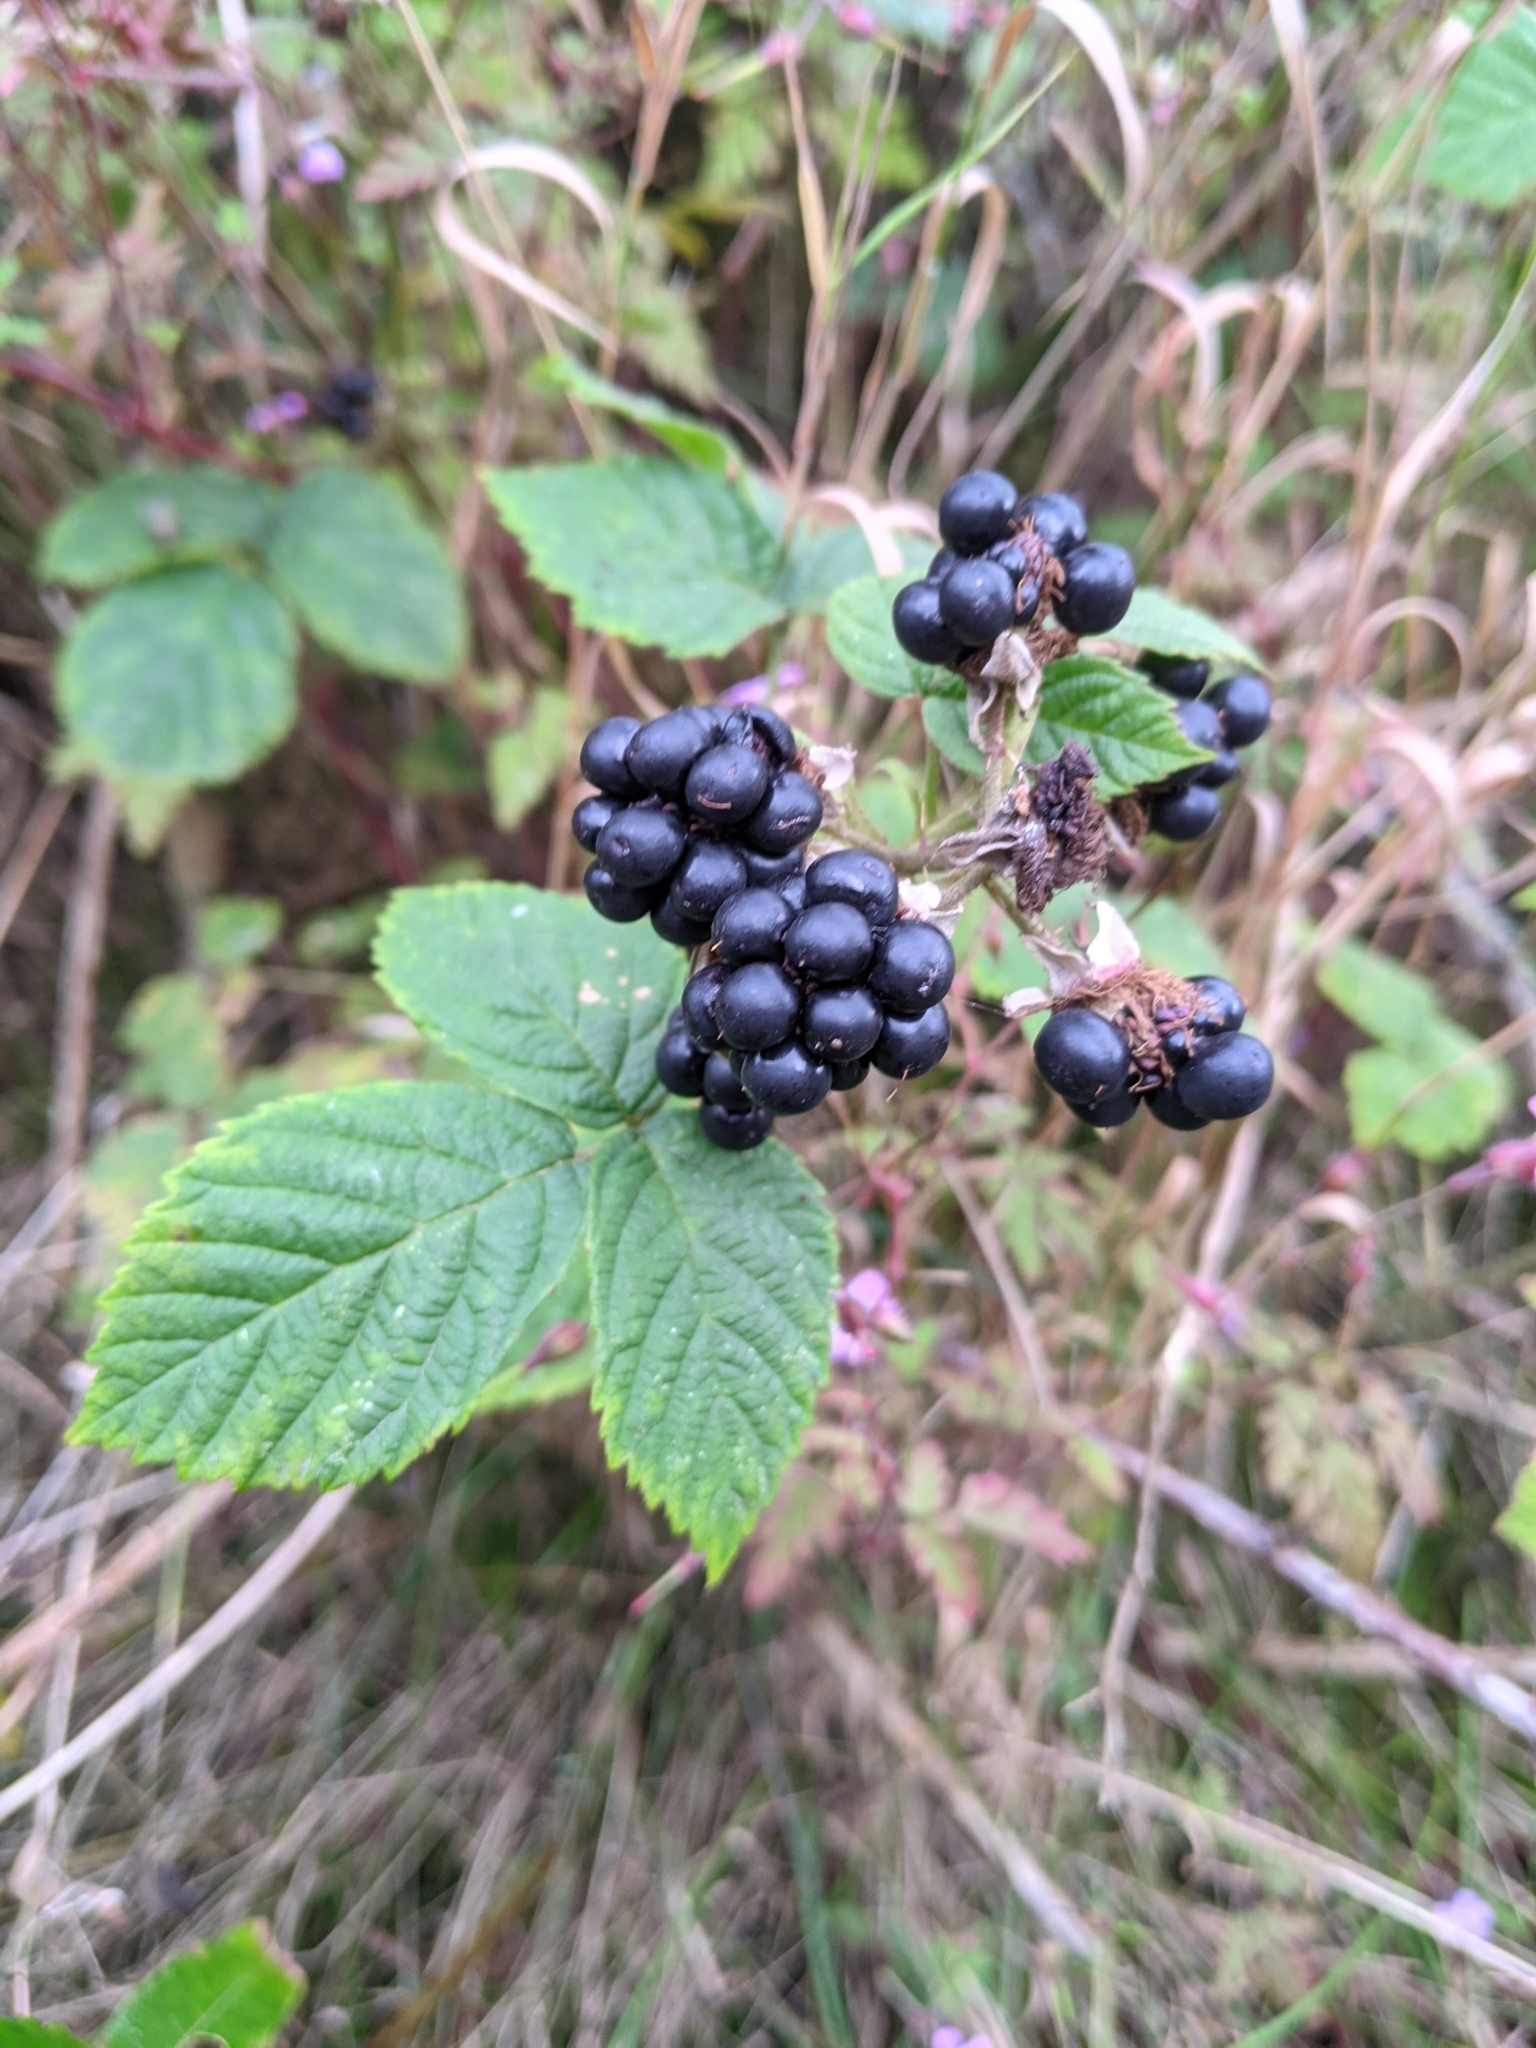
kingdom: Plantae
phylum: Tracheophyta
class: Magnoliopsida
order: Rosales
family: Rosaceae
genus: Rubus
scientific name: Rubus horrefactus
